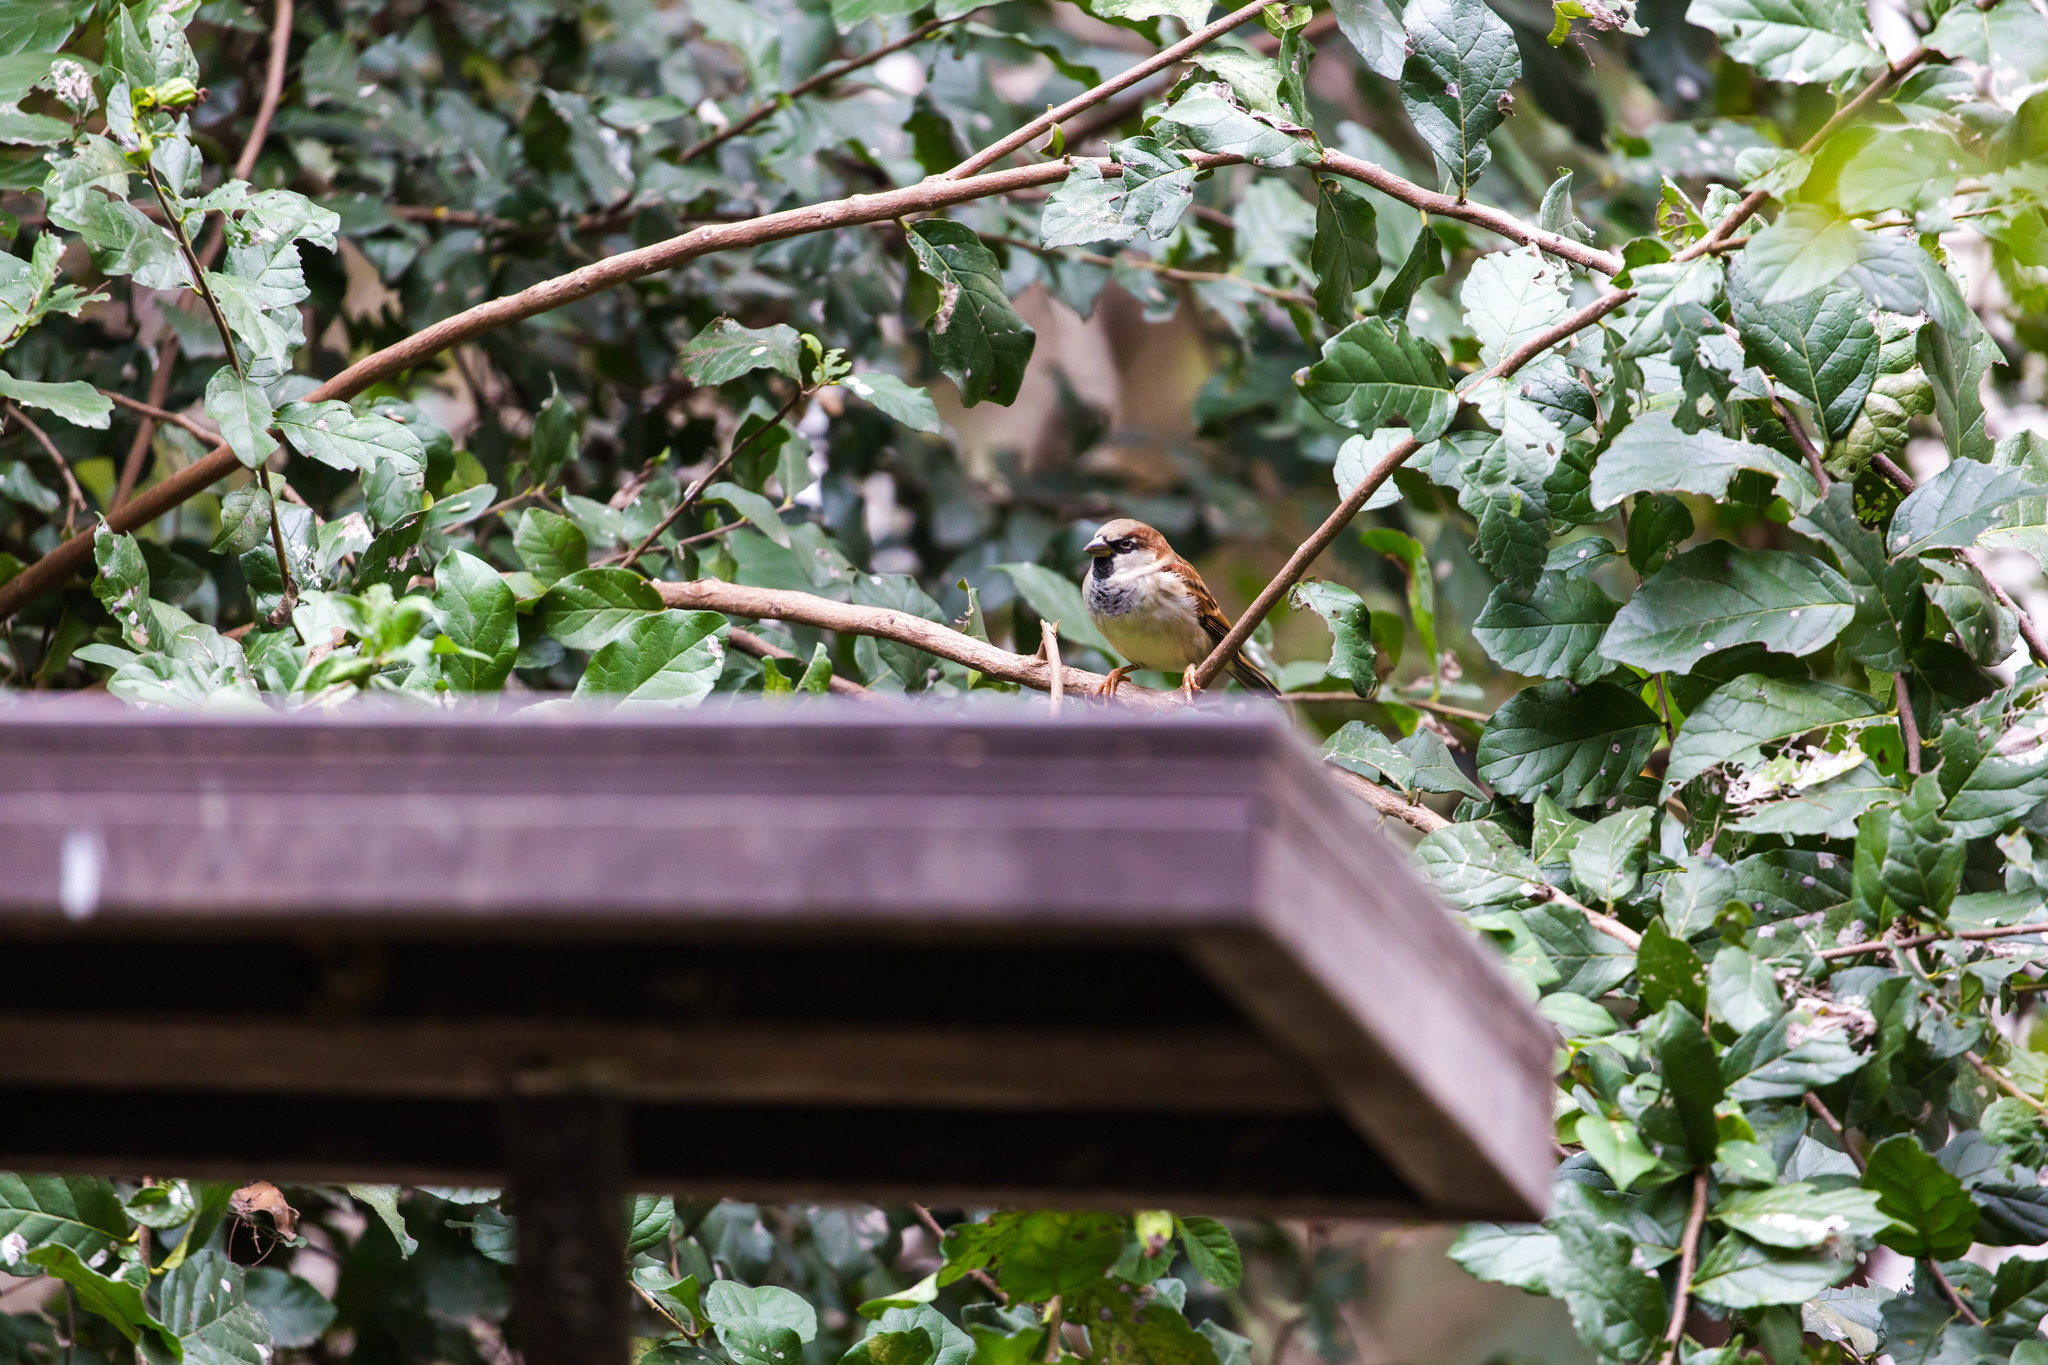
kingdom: Animalia
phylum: Chordata
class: Aves
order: Passeriformes
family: Passeridae
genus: Passer
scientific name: Passer domesticus
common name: House sparrow
